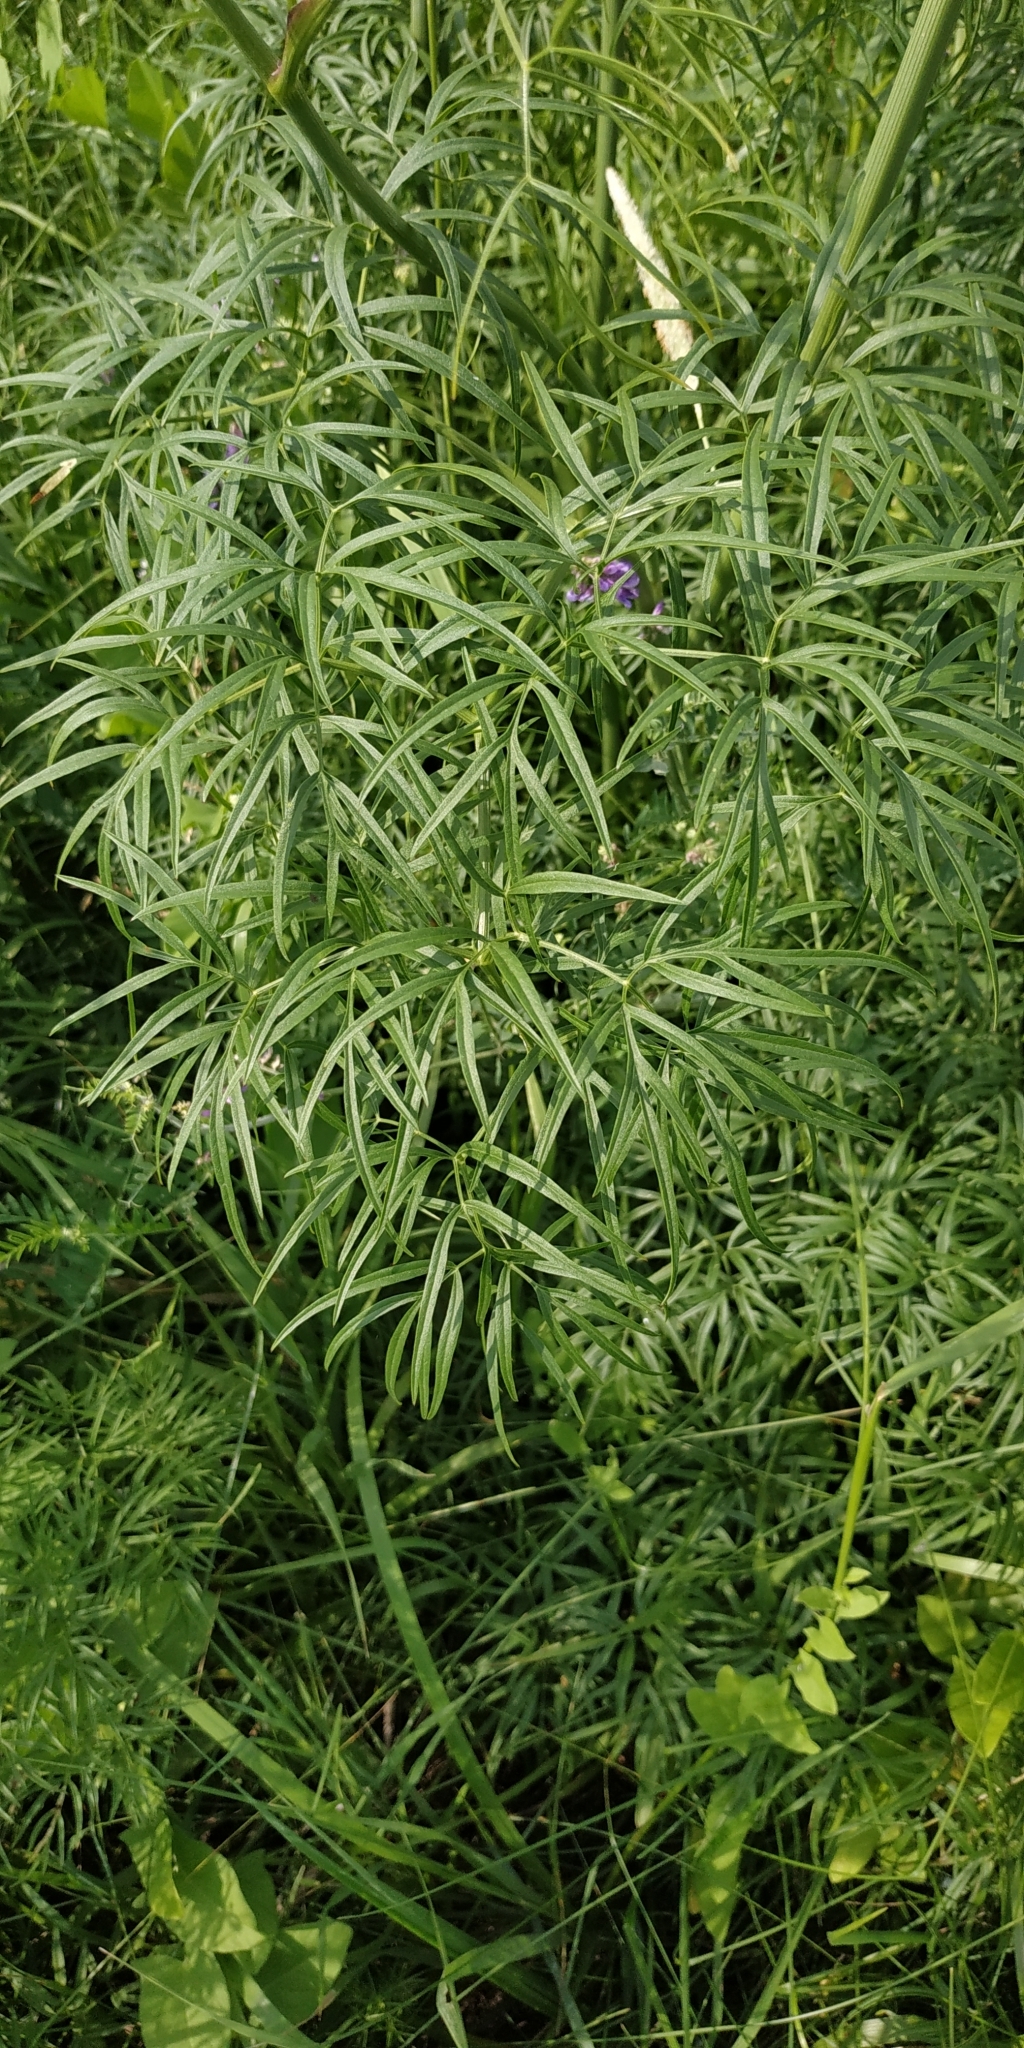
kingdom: Plantae
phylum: Tracheophyta
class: Magnoliopsida
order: Apiales
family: Apiaceae
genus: Cenolophium
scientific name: Cenolophium fischeri
